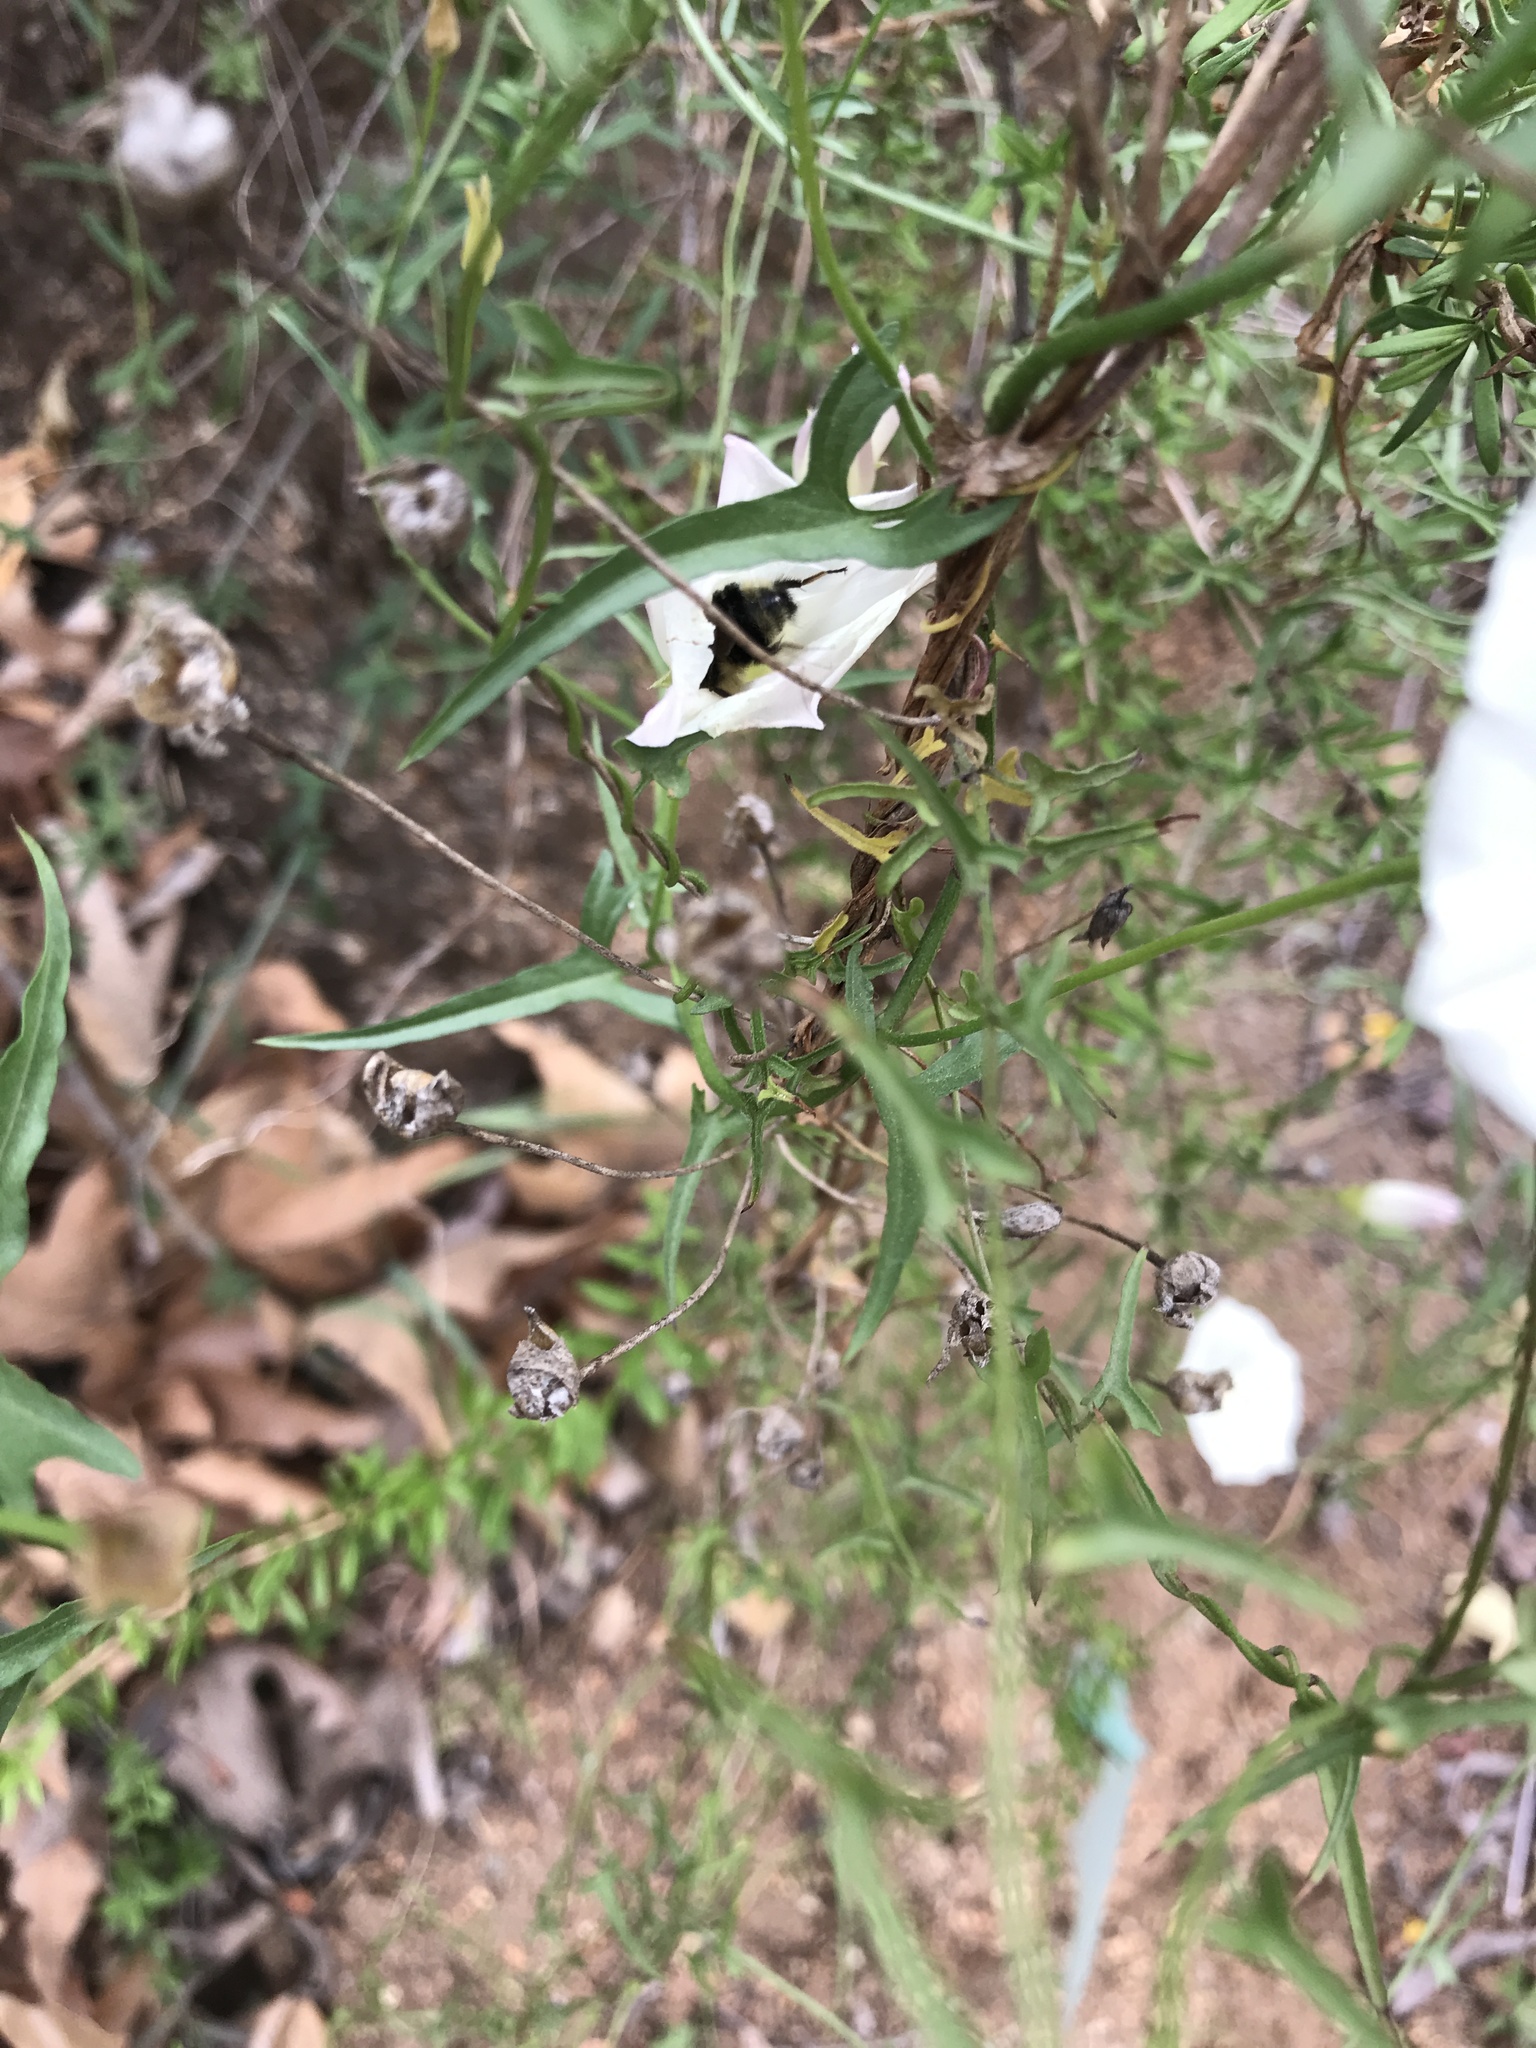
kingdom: Animalia
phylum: Arthropoda
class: Insecta
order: Hymenoptera
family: Apidae
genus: Bombus
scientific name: Bombus melanopygus
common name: Black tail bumble bee
